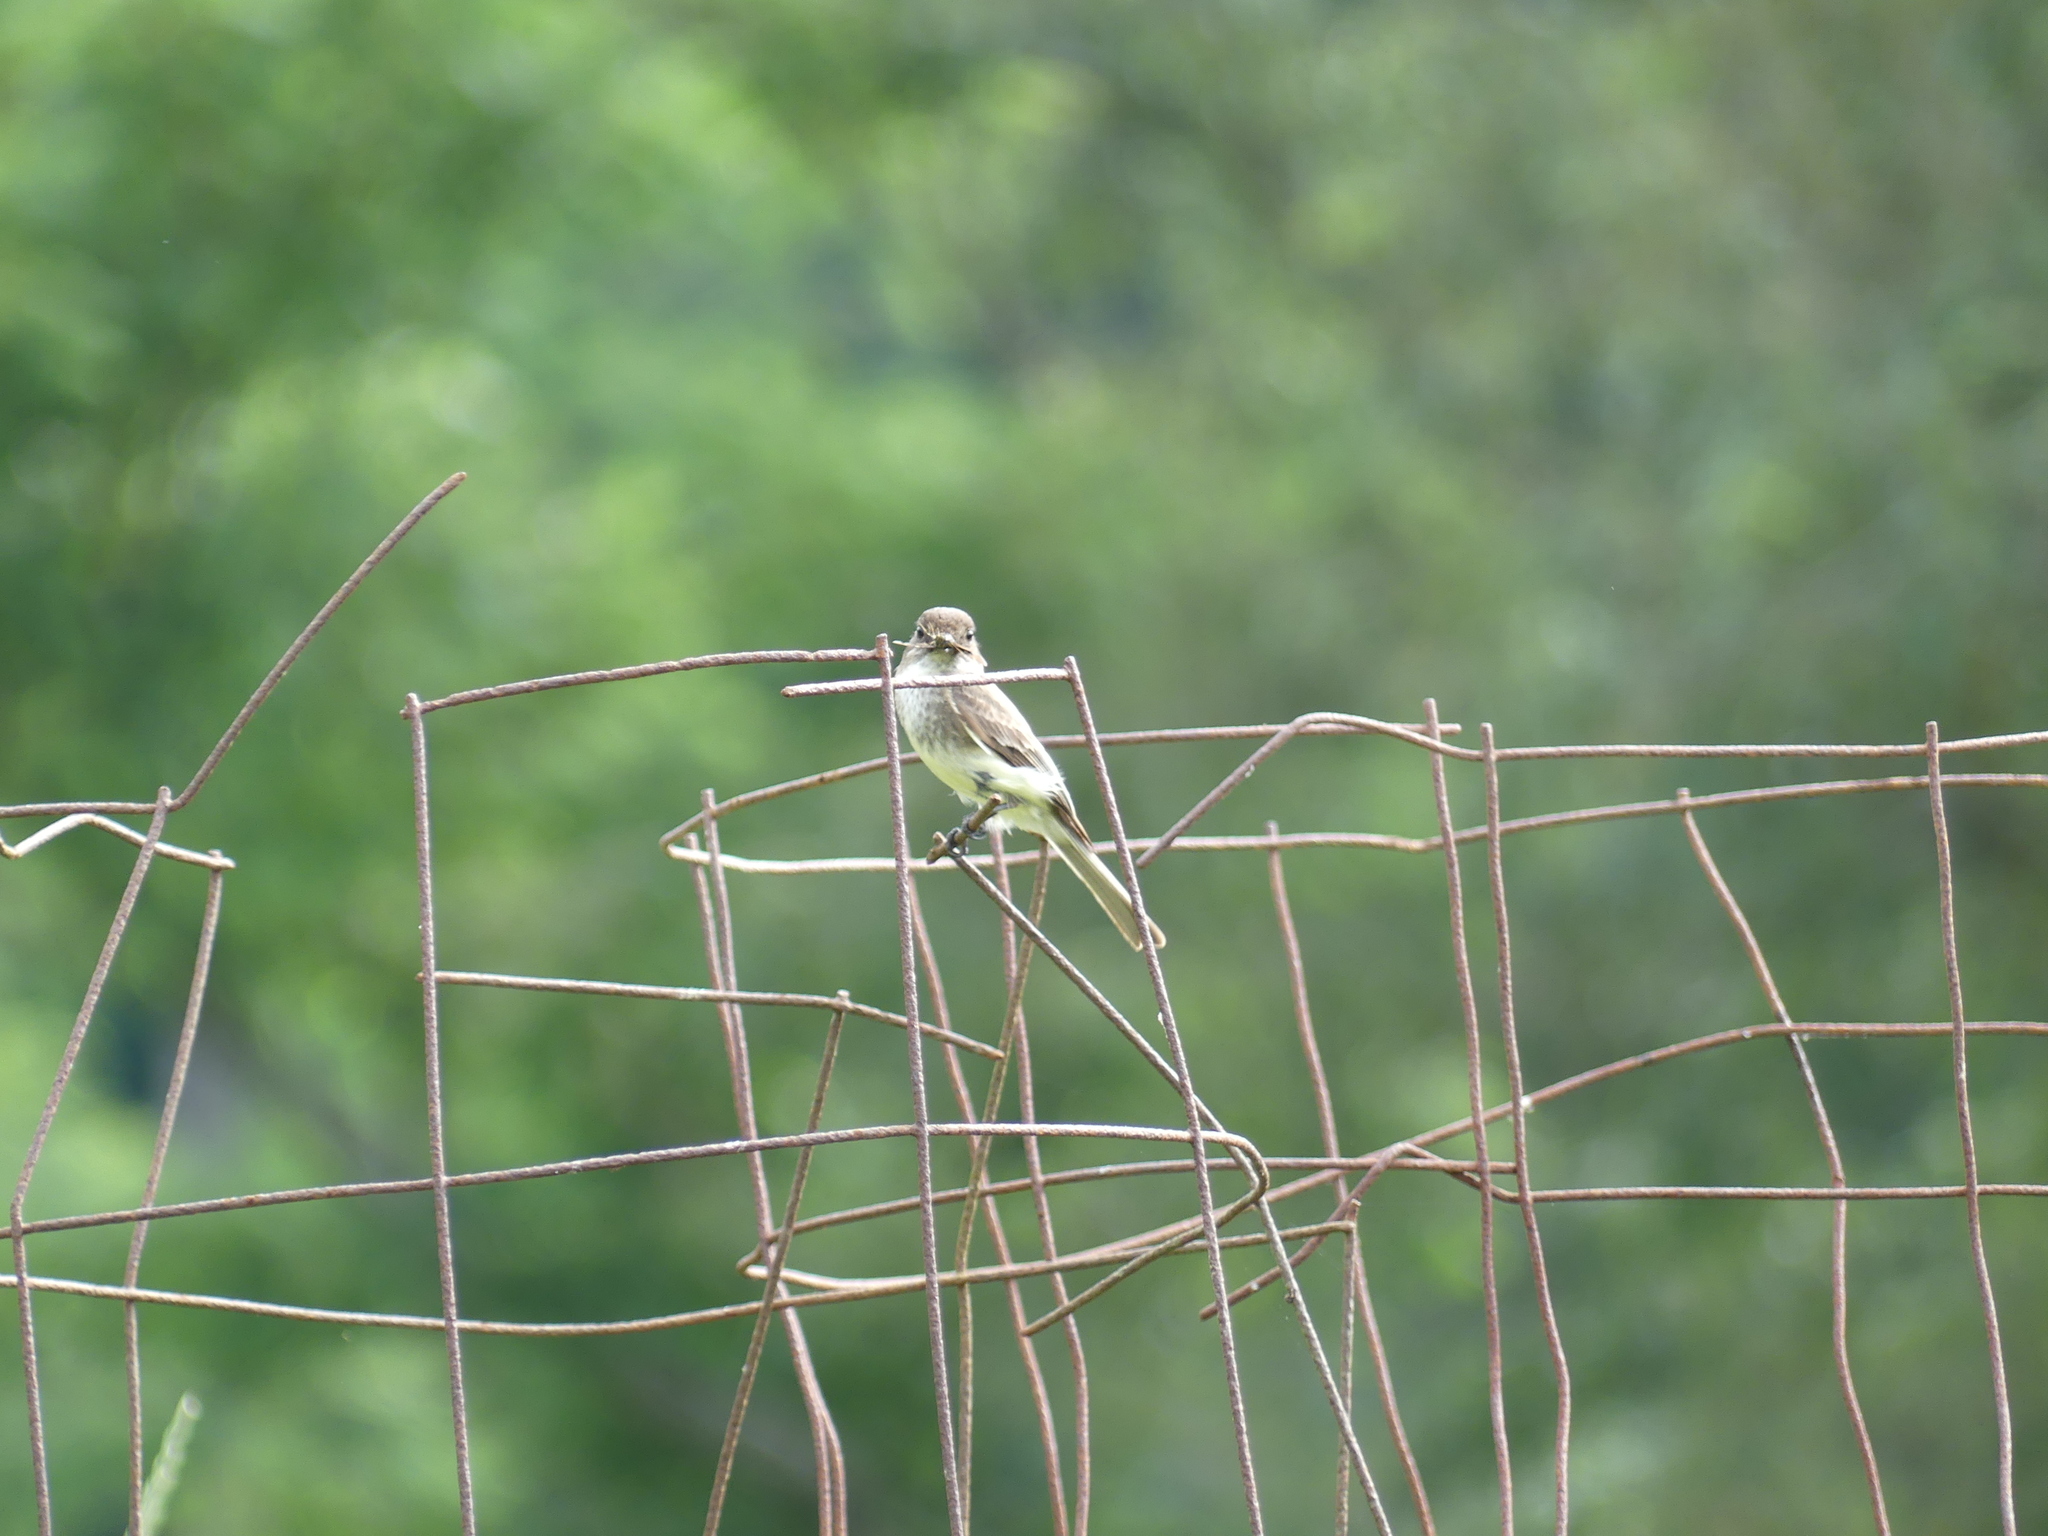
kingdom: Animalia
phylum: Chordata
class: Aves
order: Passeriformes
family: Tyrannidae
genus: Sayornis
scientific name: Sayornis phoebe
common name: Eastern phoebe
